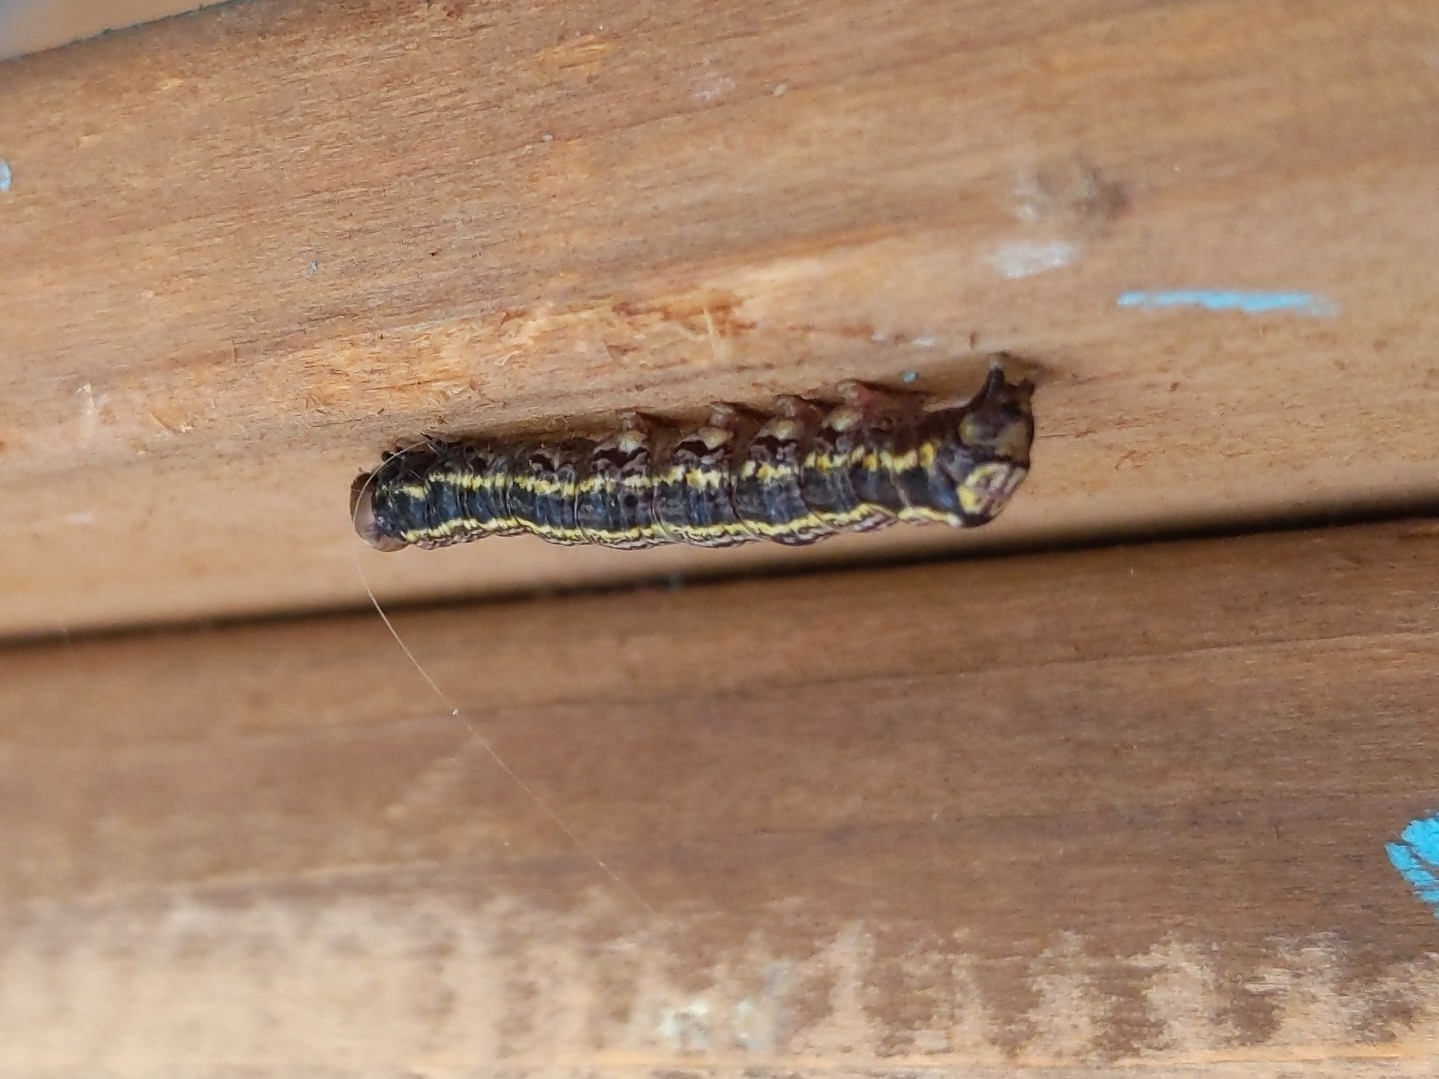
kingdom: Animalia
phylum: Arthropoda
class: Insecta
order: Lepidoptera
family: Notodontidae
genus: Phryganidia
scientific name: Phryganidia californica
